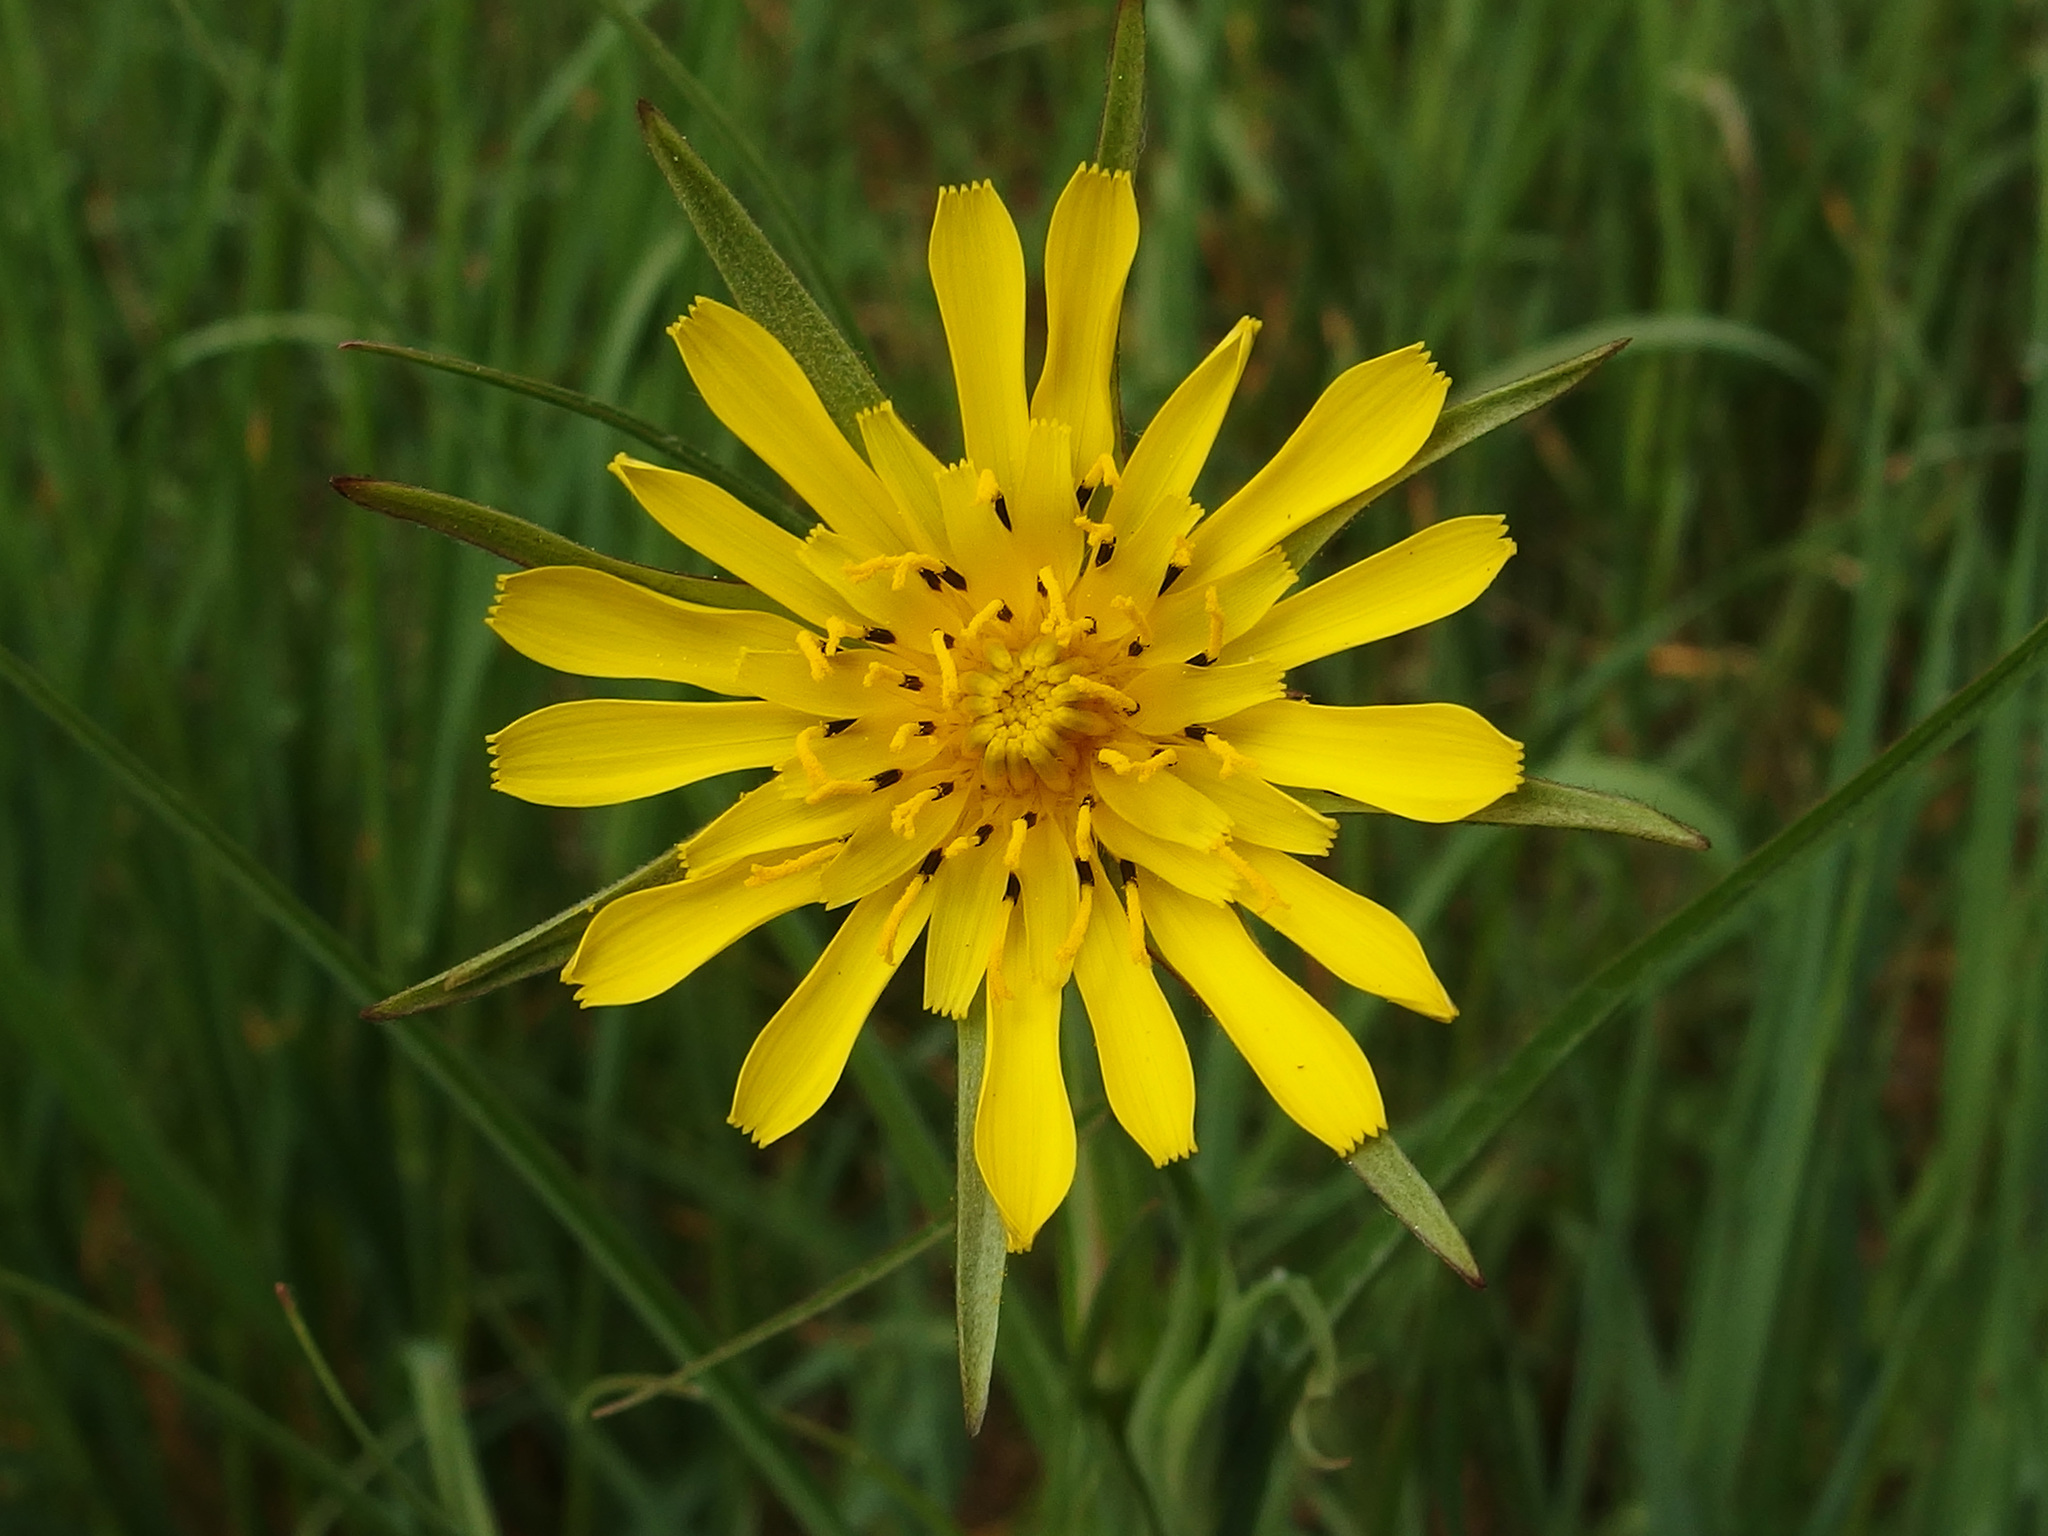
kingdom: Plantae
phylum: Tracheophyta
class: Magnoliopsida
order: Asterales
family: Asteraceae
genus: Tragopogon
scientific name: Tragopogon pratensis
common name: Goat's-beard
